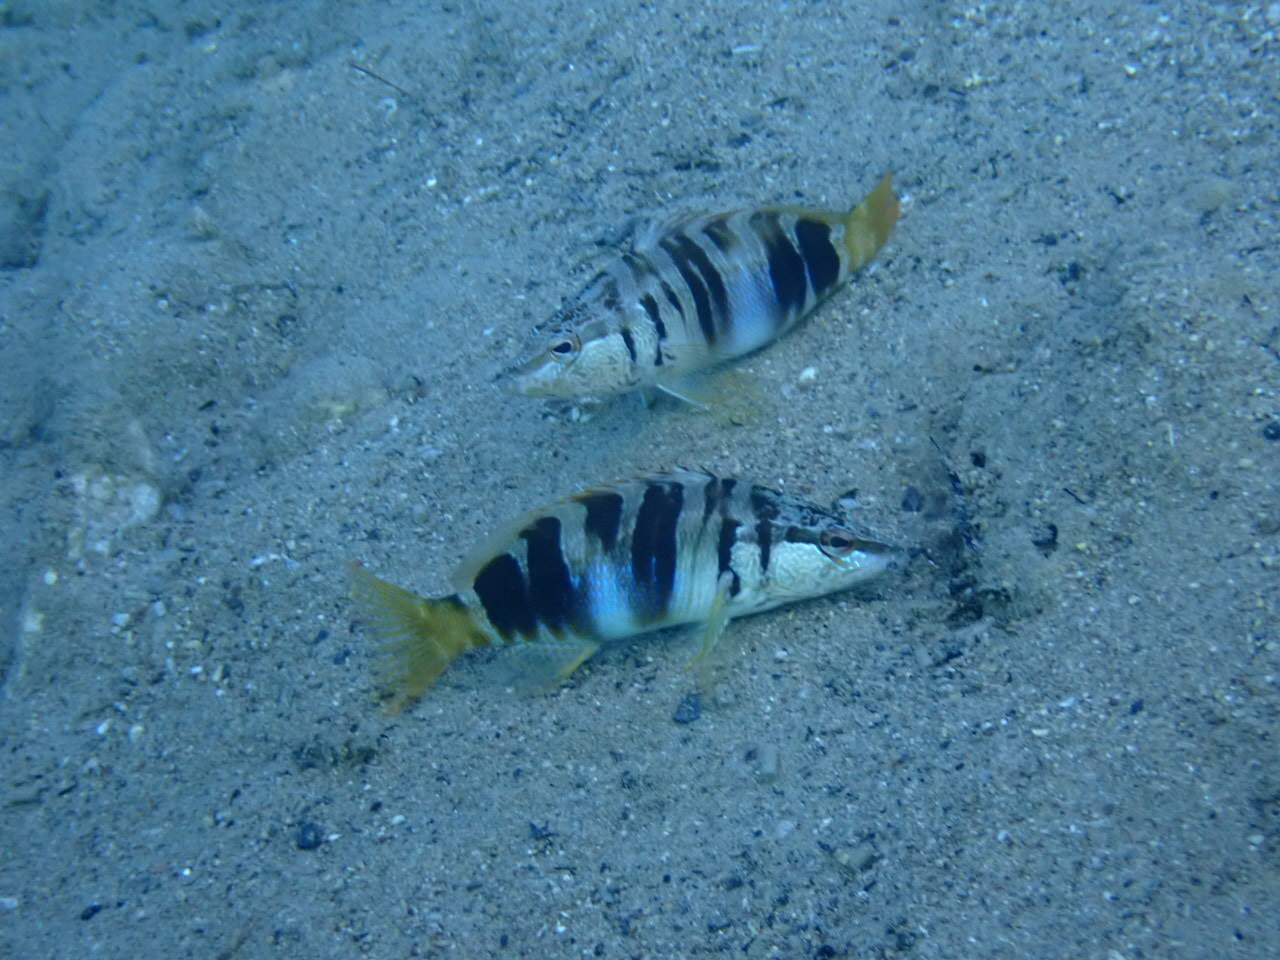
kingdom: Animalia
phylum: Chordata
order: Perciformes
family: Serranidae
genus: Serranus
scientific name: Serranus scriba
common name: Painted comber
